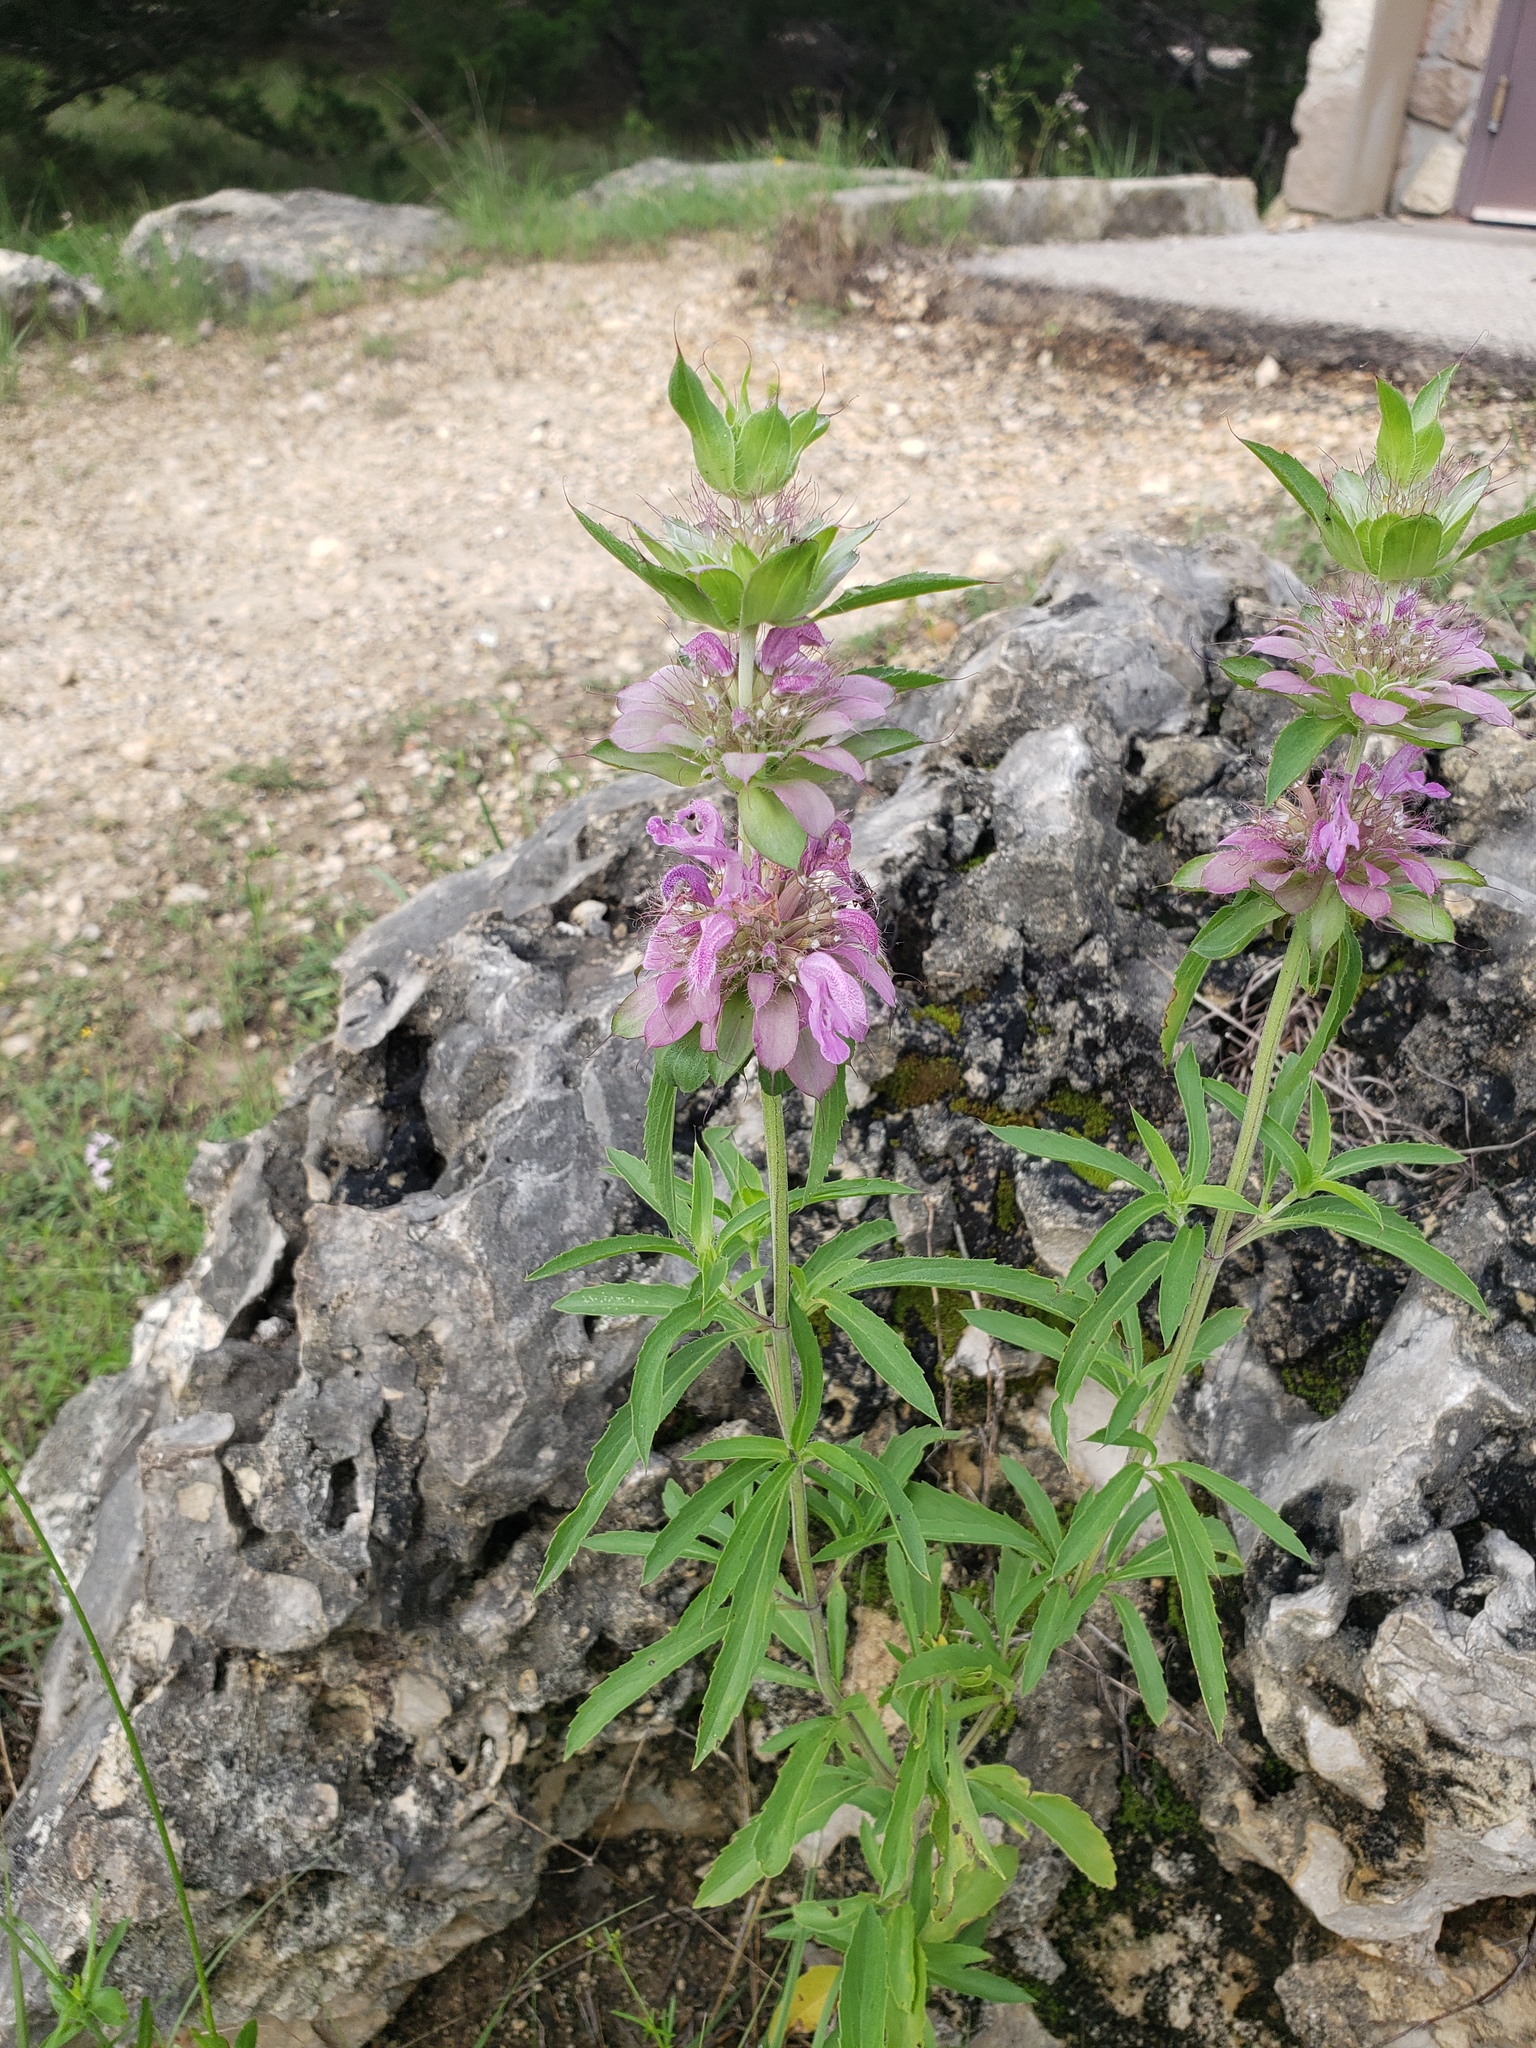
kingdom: Plantae
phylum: Tracheophyta
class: Magnoliopsida
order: Lamiales
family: Lamiaceae
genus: Monarda
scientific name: Monarda citriodora
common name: Lemon beebalm
